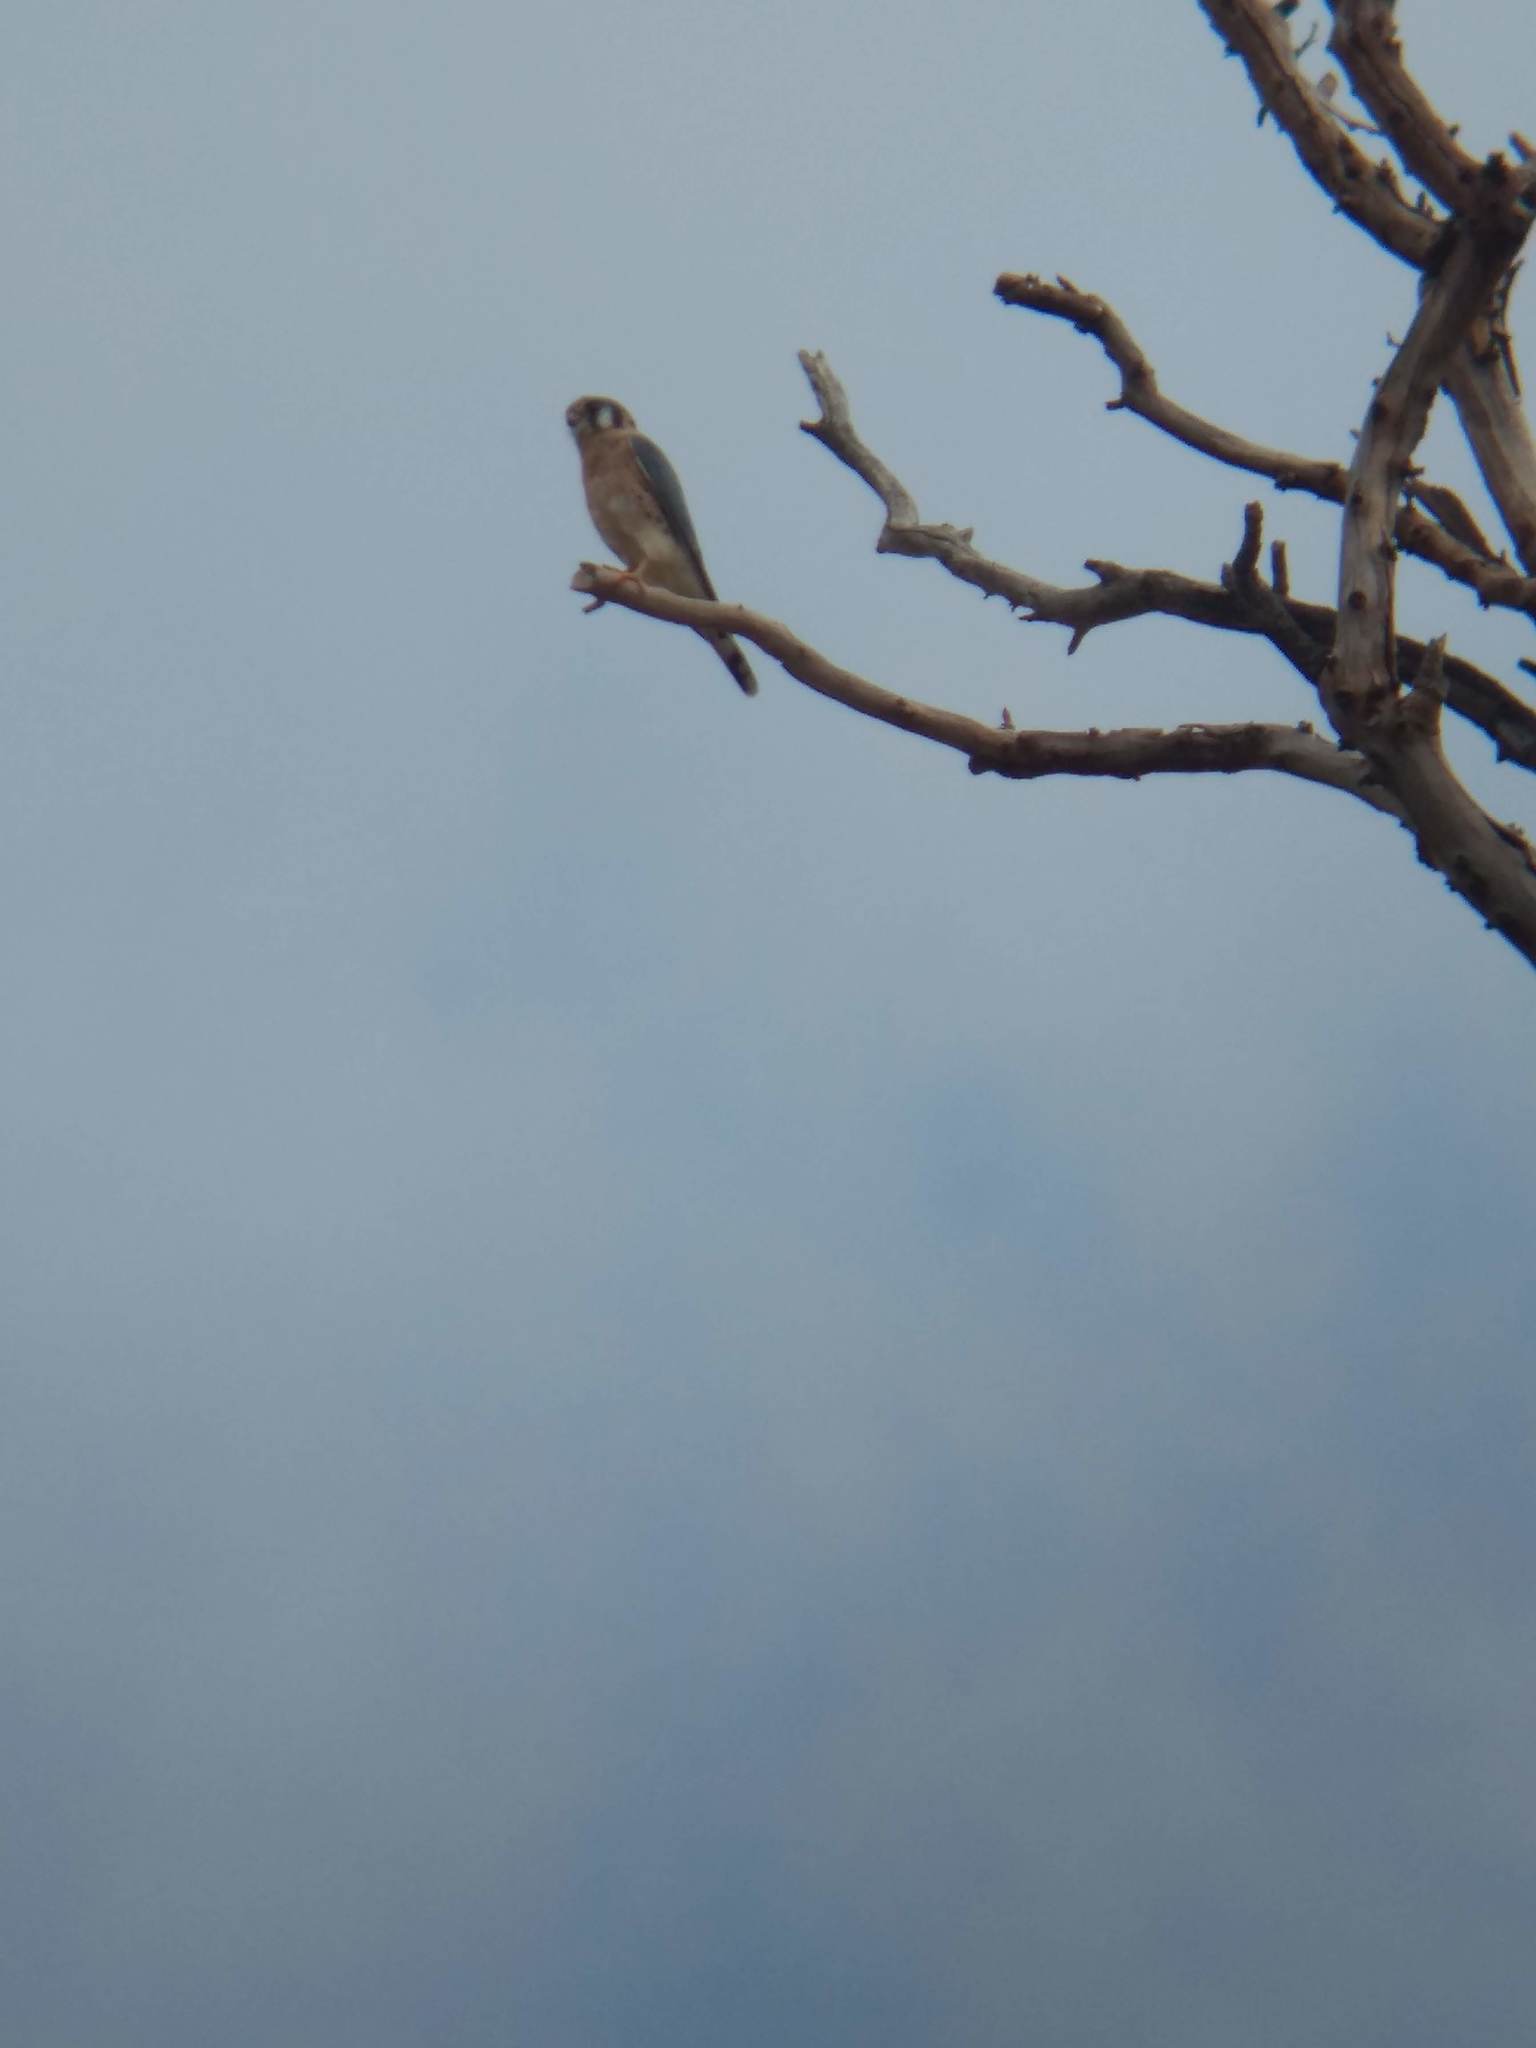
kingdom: Animalia
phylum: Chordata
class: Aves
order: Falconiformes
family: Falconidae
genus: Falco
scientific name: Falco sparverius
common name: American kestrel
